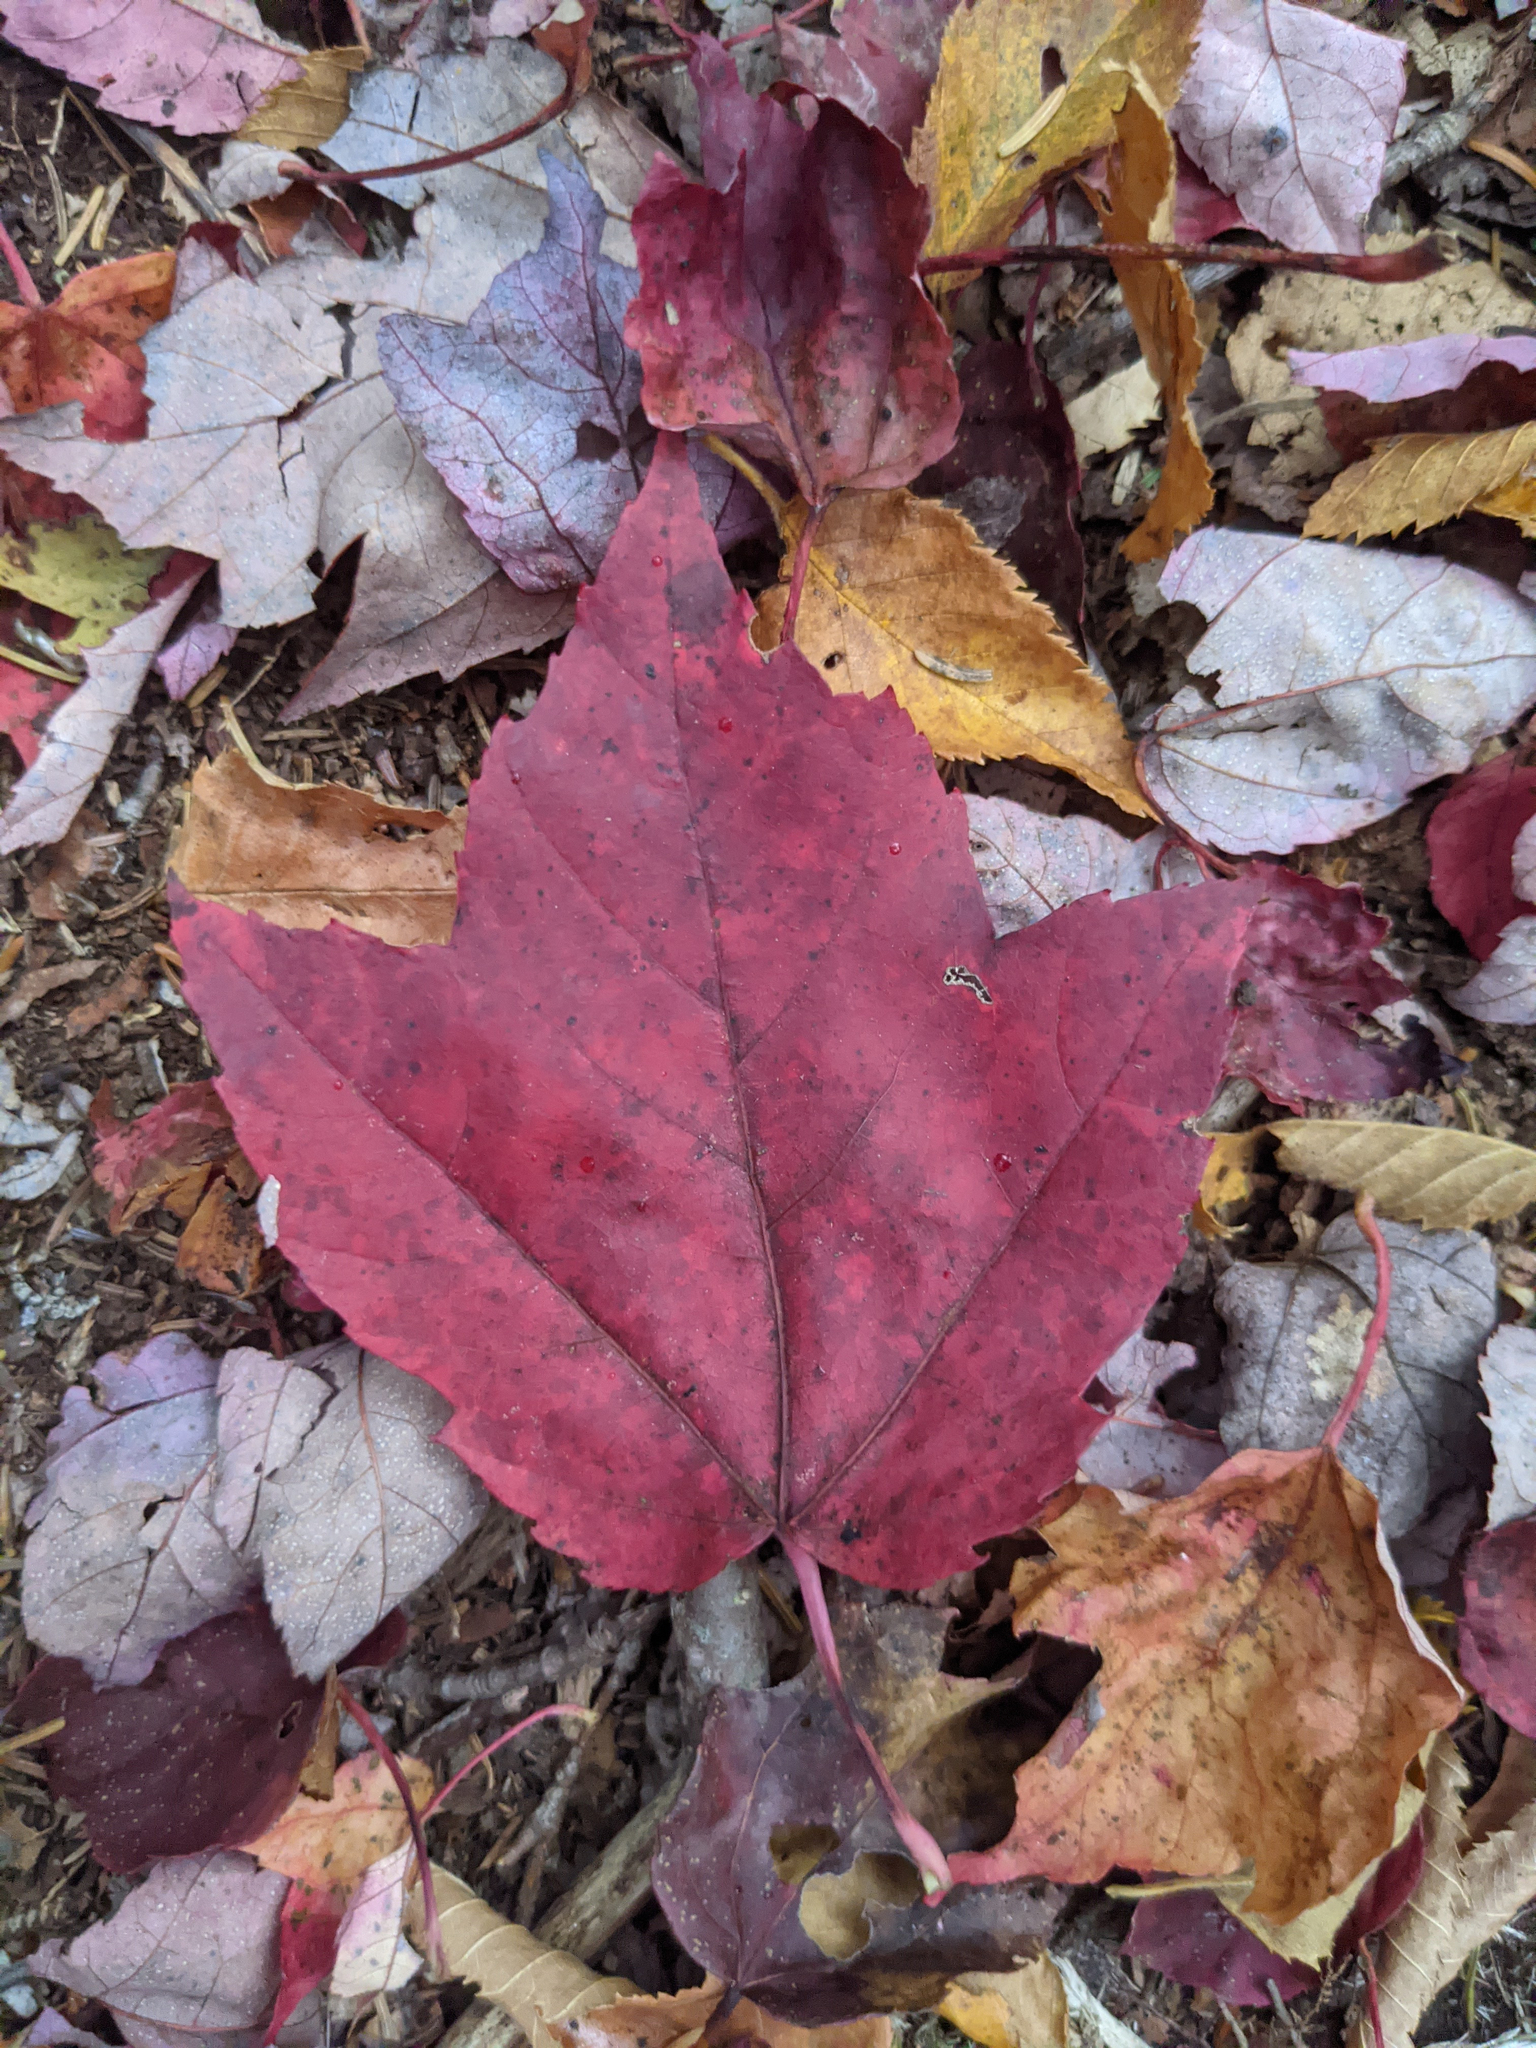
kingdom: Plantae
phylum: Tracheophyta
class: Magnoliopsida
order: Sapindales
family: Sapindaceae
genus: Acer
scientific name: Acer rubrum
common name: Red maple
